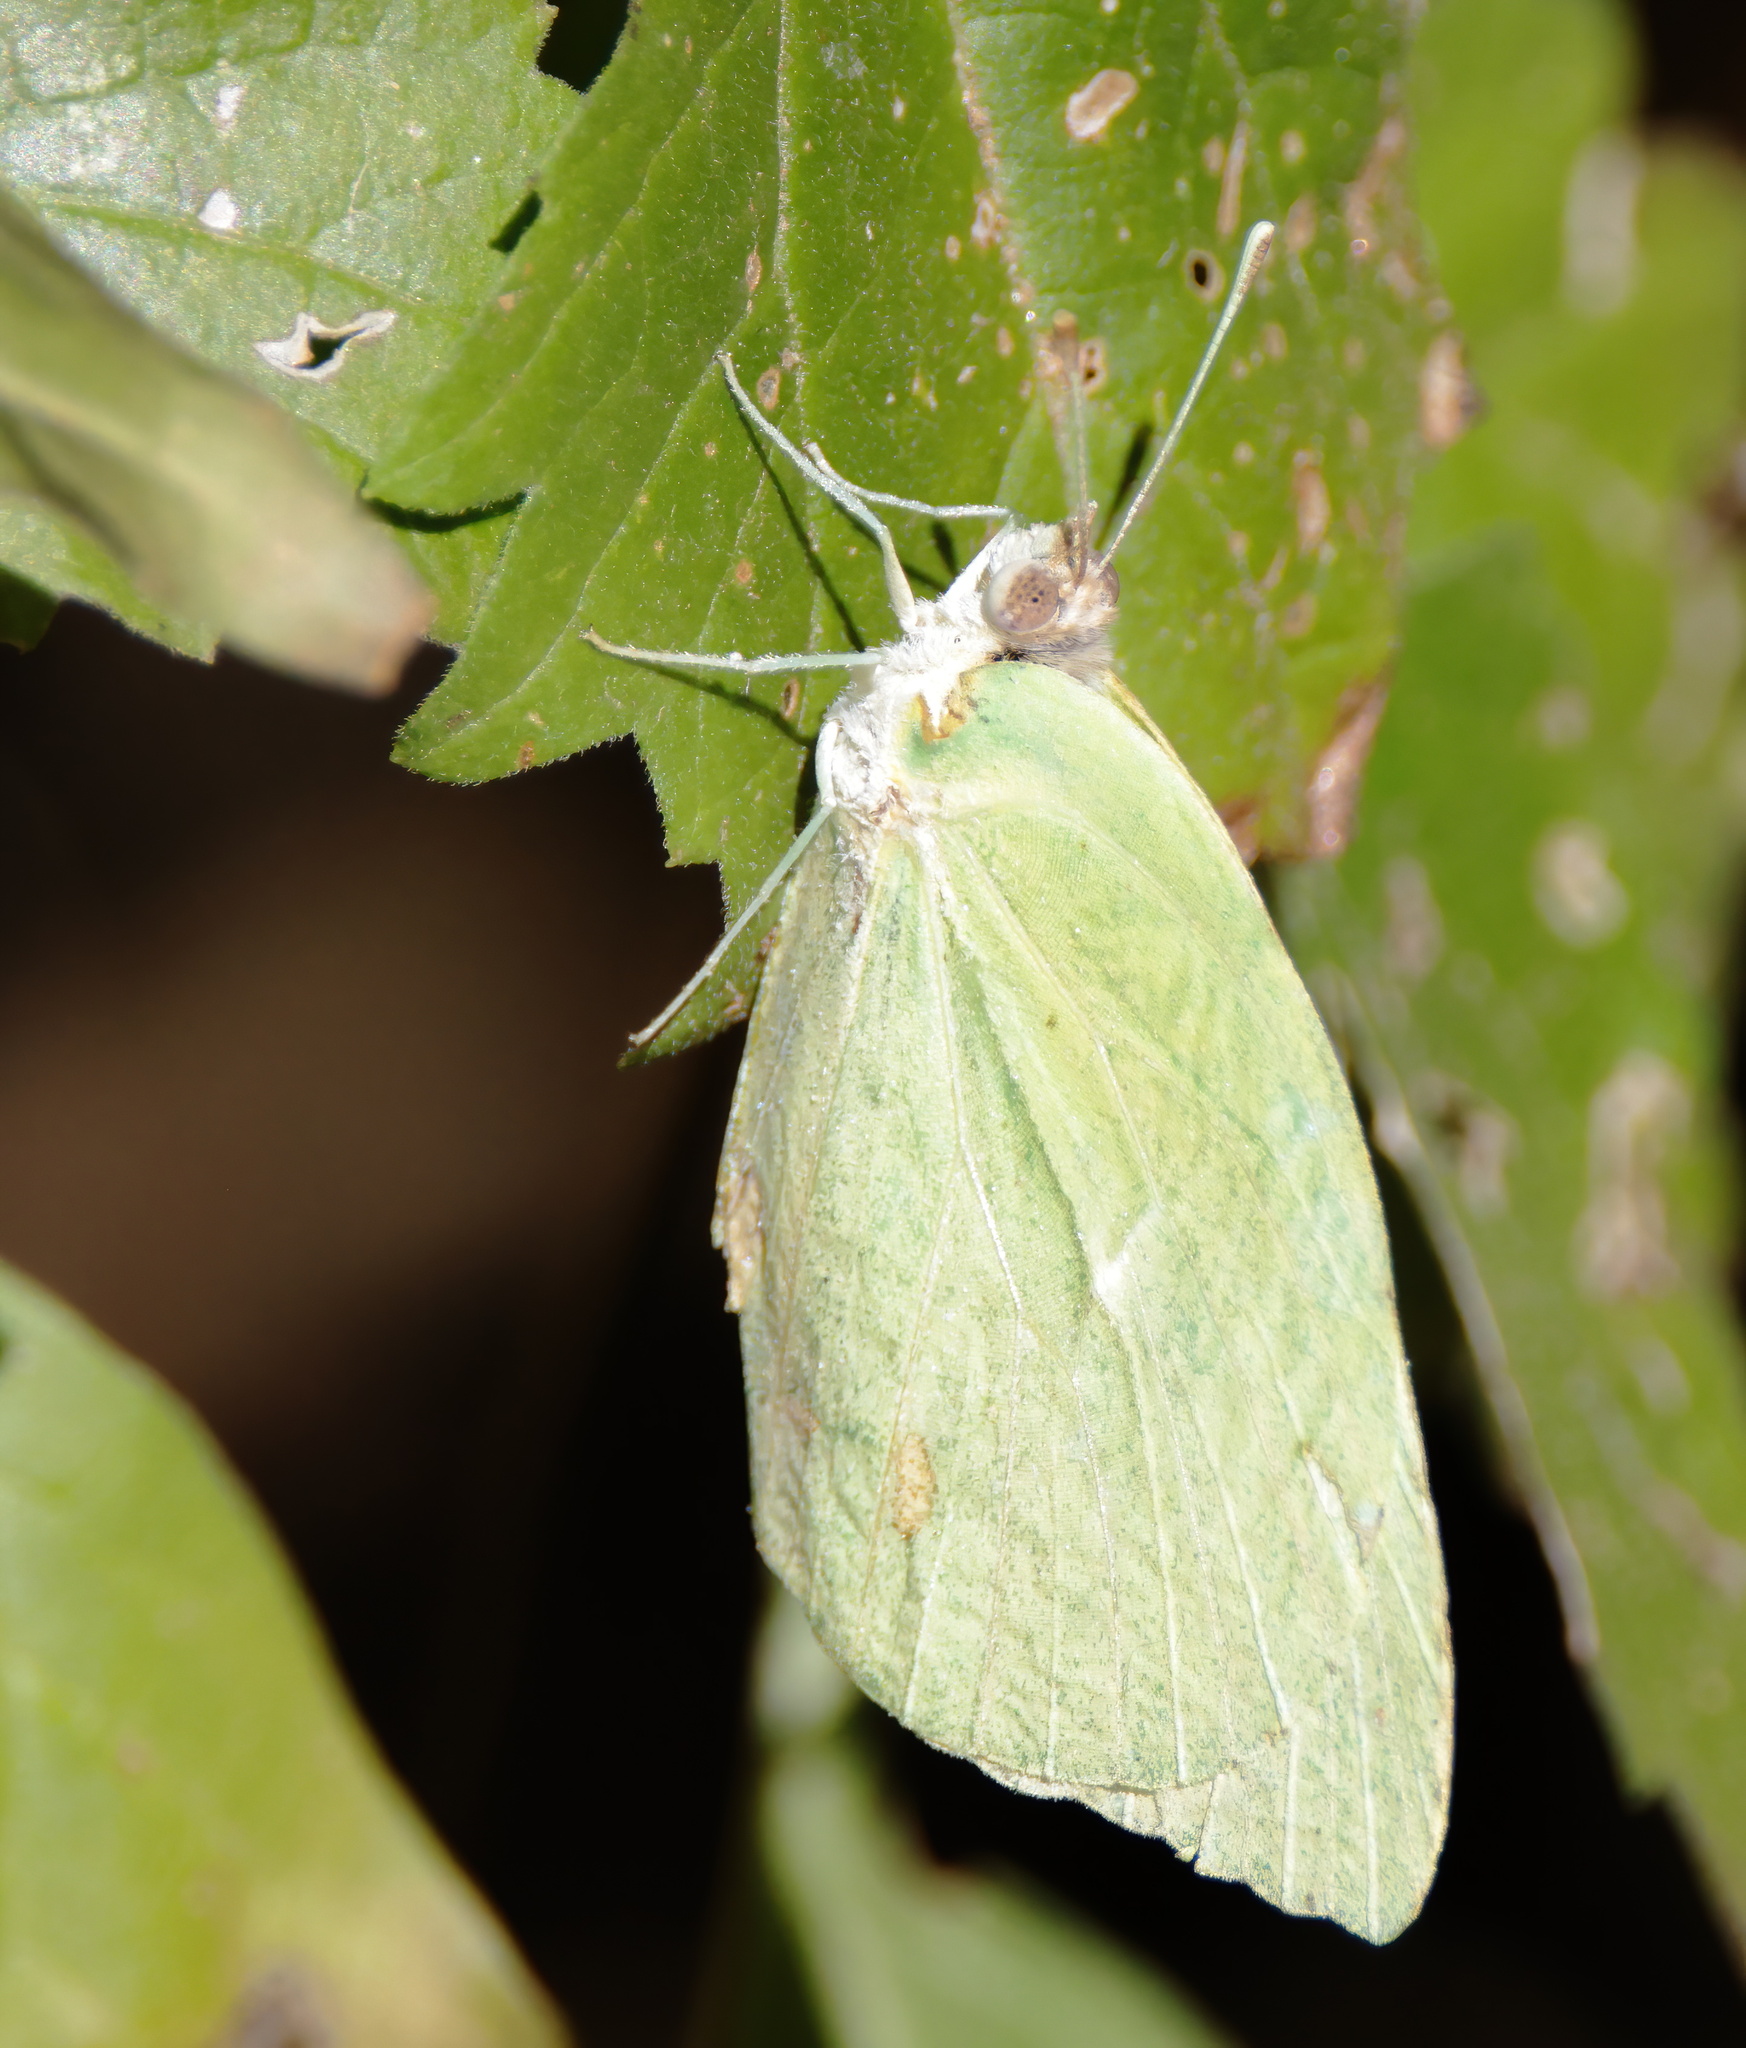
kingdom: Animalia
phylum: Arthropoda
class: Insecta
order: Lepidoptera
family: Pieridae
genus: Kricogonia
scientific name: Kricogonia lyside
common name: Guayacan sulphur,
